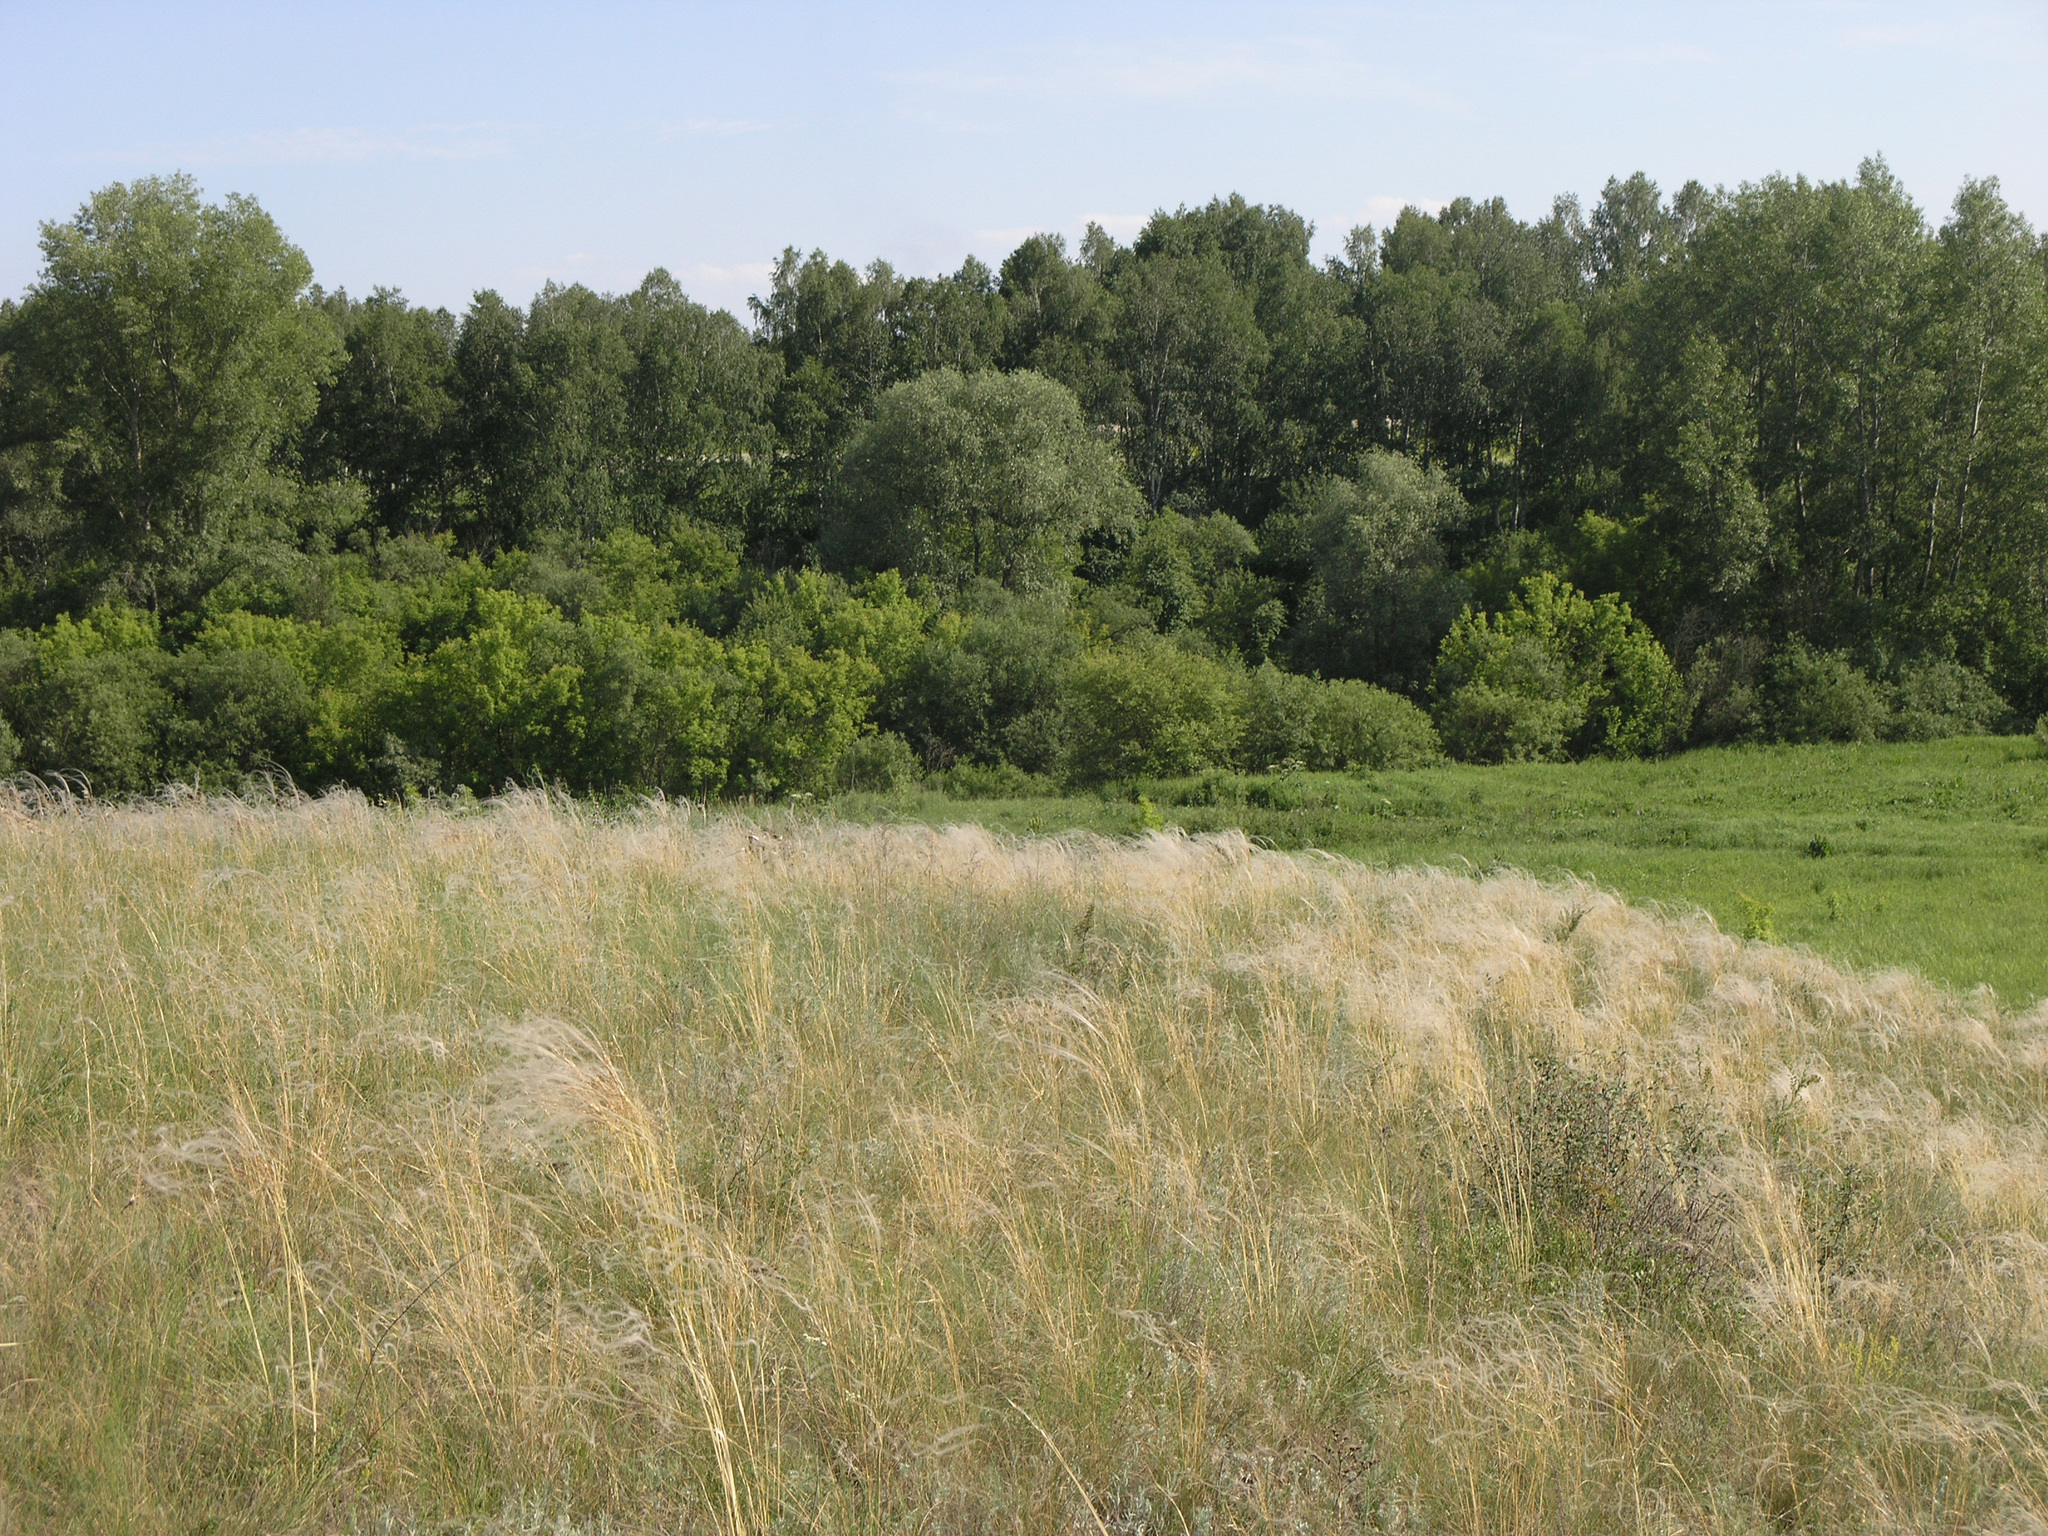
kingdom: Plantae
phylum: Tracheophyta
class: Liliopsida
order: Poales
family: Poaceae
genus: Stipa
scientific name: Stipa pennata
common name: European feather grass
